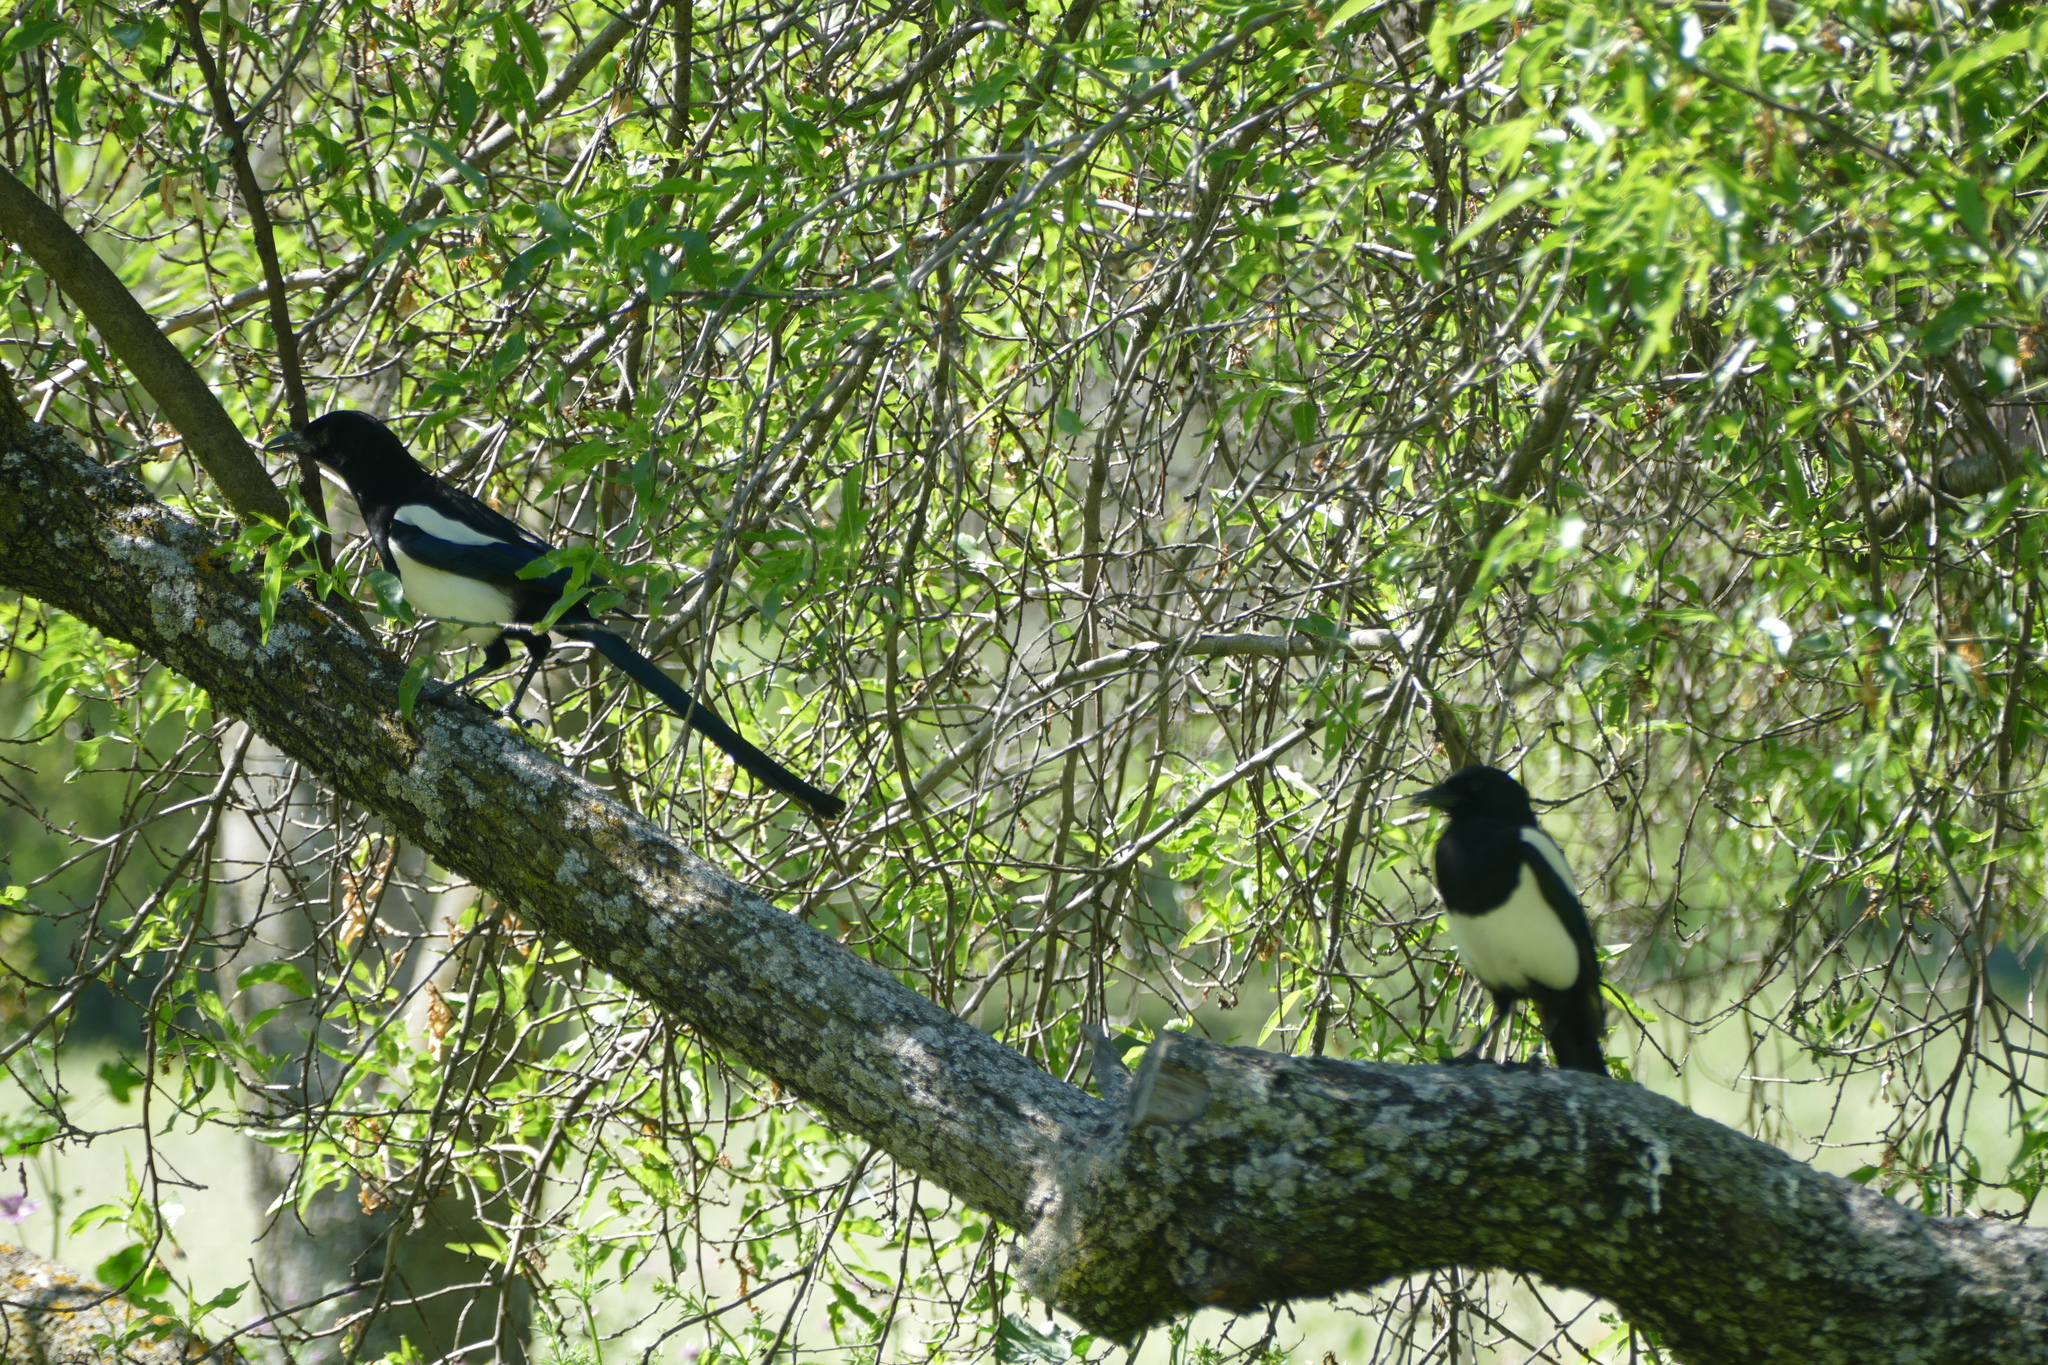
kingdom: Animalia
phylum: Chordata
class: Aves
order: Passeriformes
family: Corvidae
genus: Pica
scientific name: Pica pica
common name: Eurasian magpie
